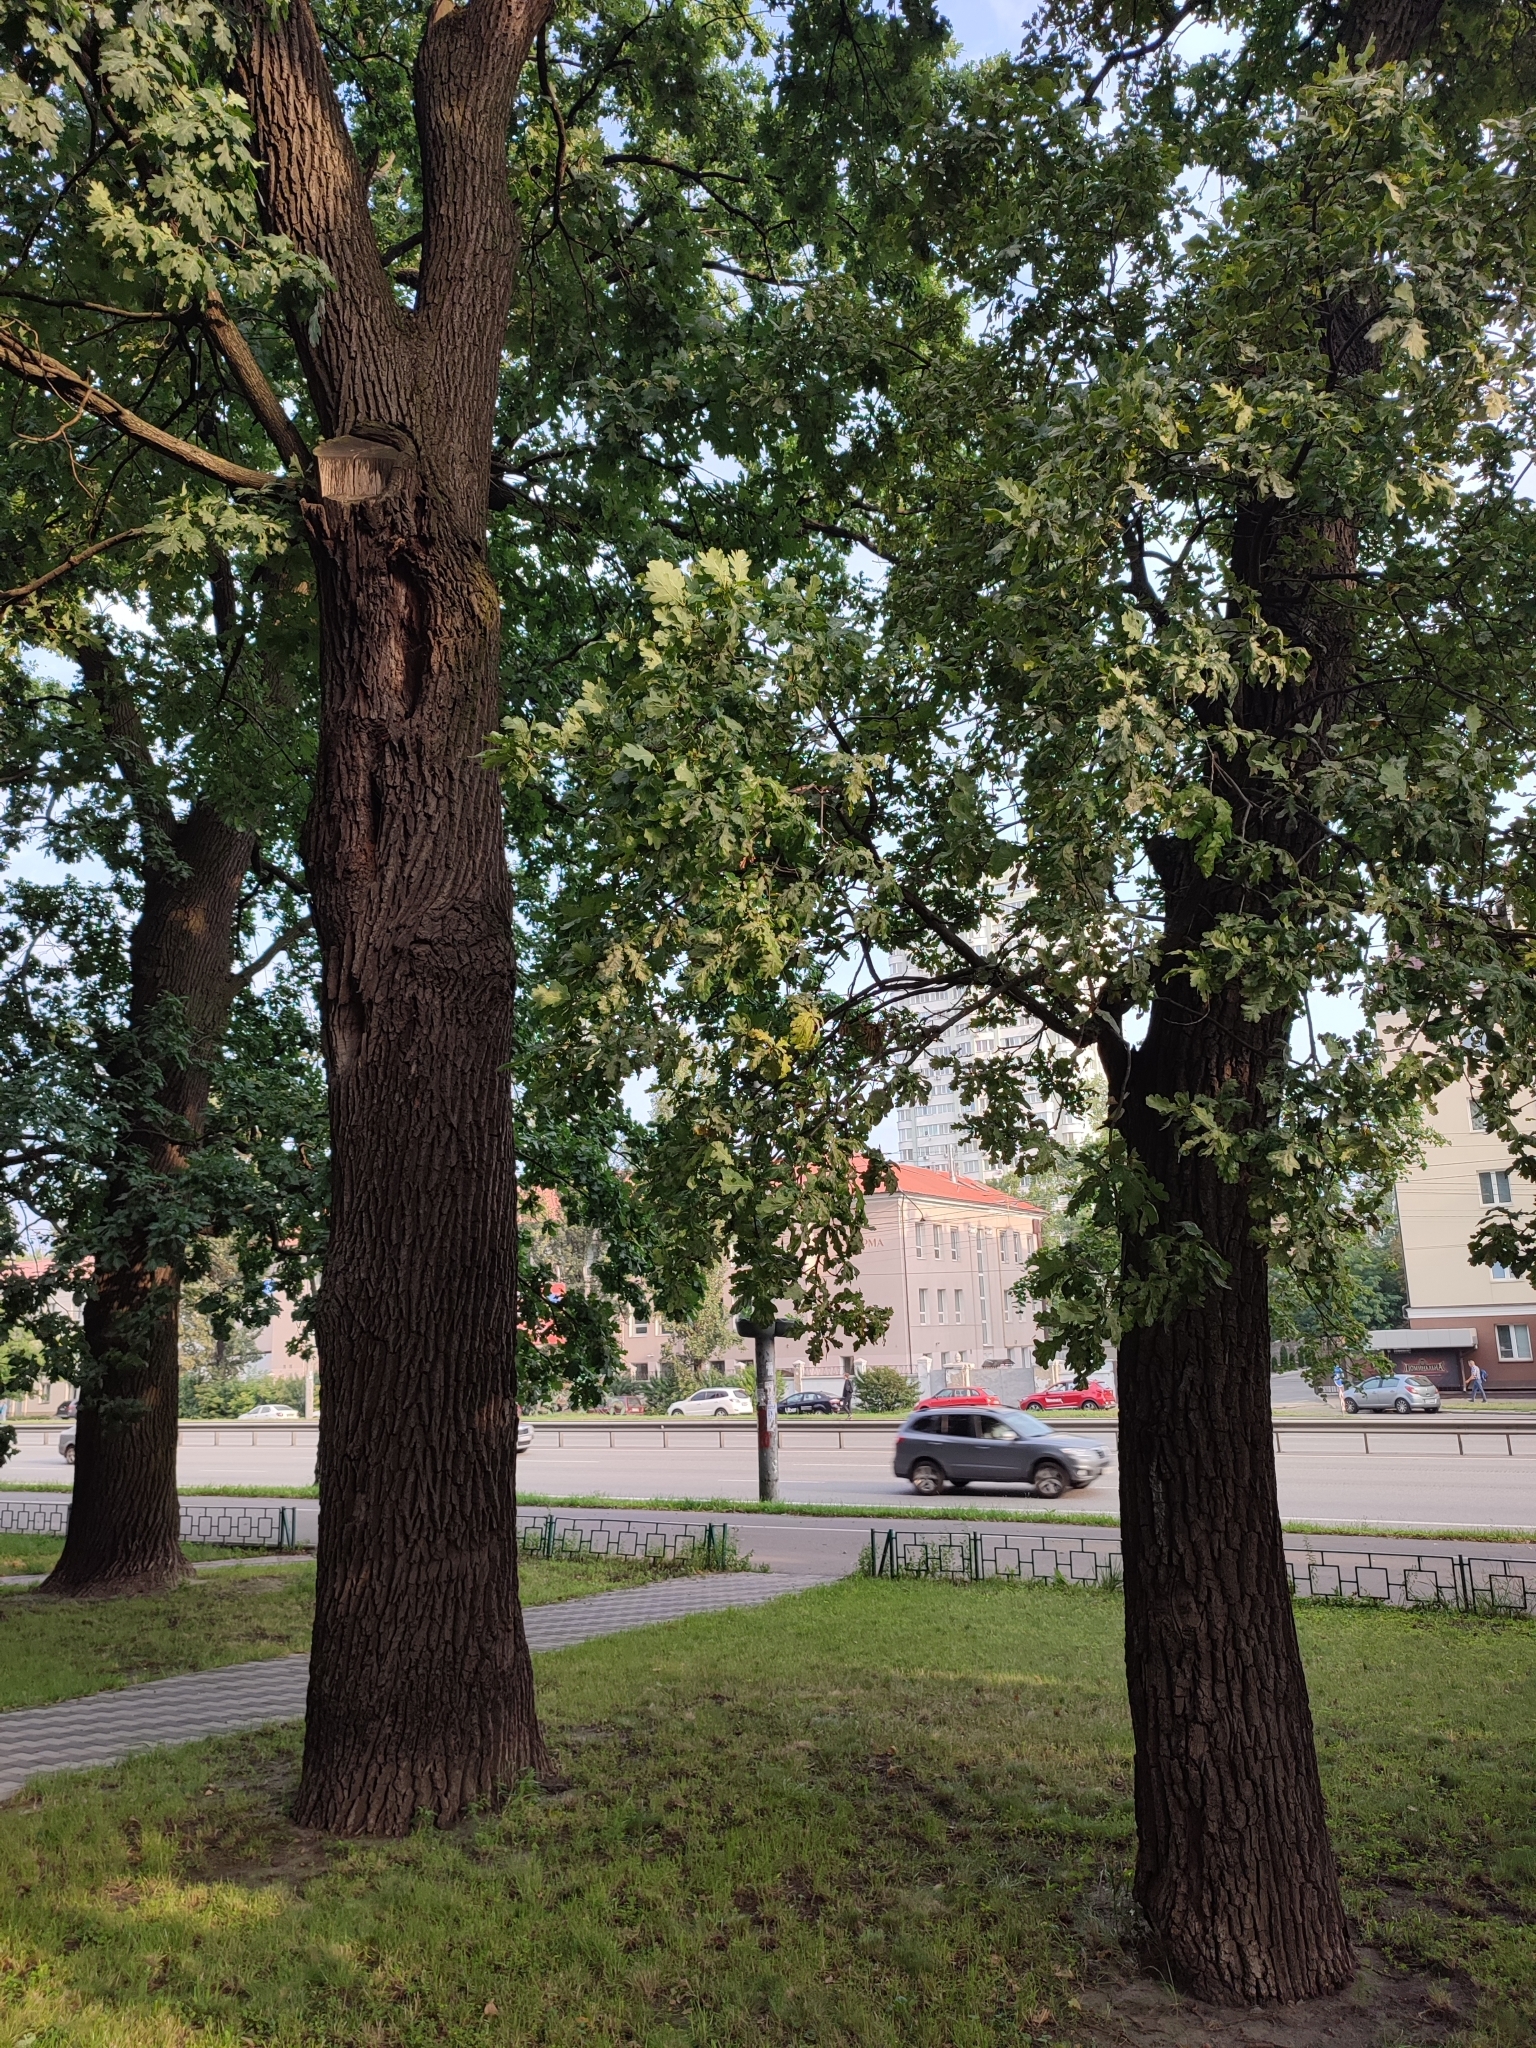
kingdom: Plantae
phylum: Tracheophyta
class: Magnoliopsida
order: Fagales
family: Fagaceae
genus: Quercus
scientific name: Quercus robur
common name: Pedunculate oak
